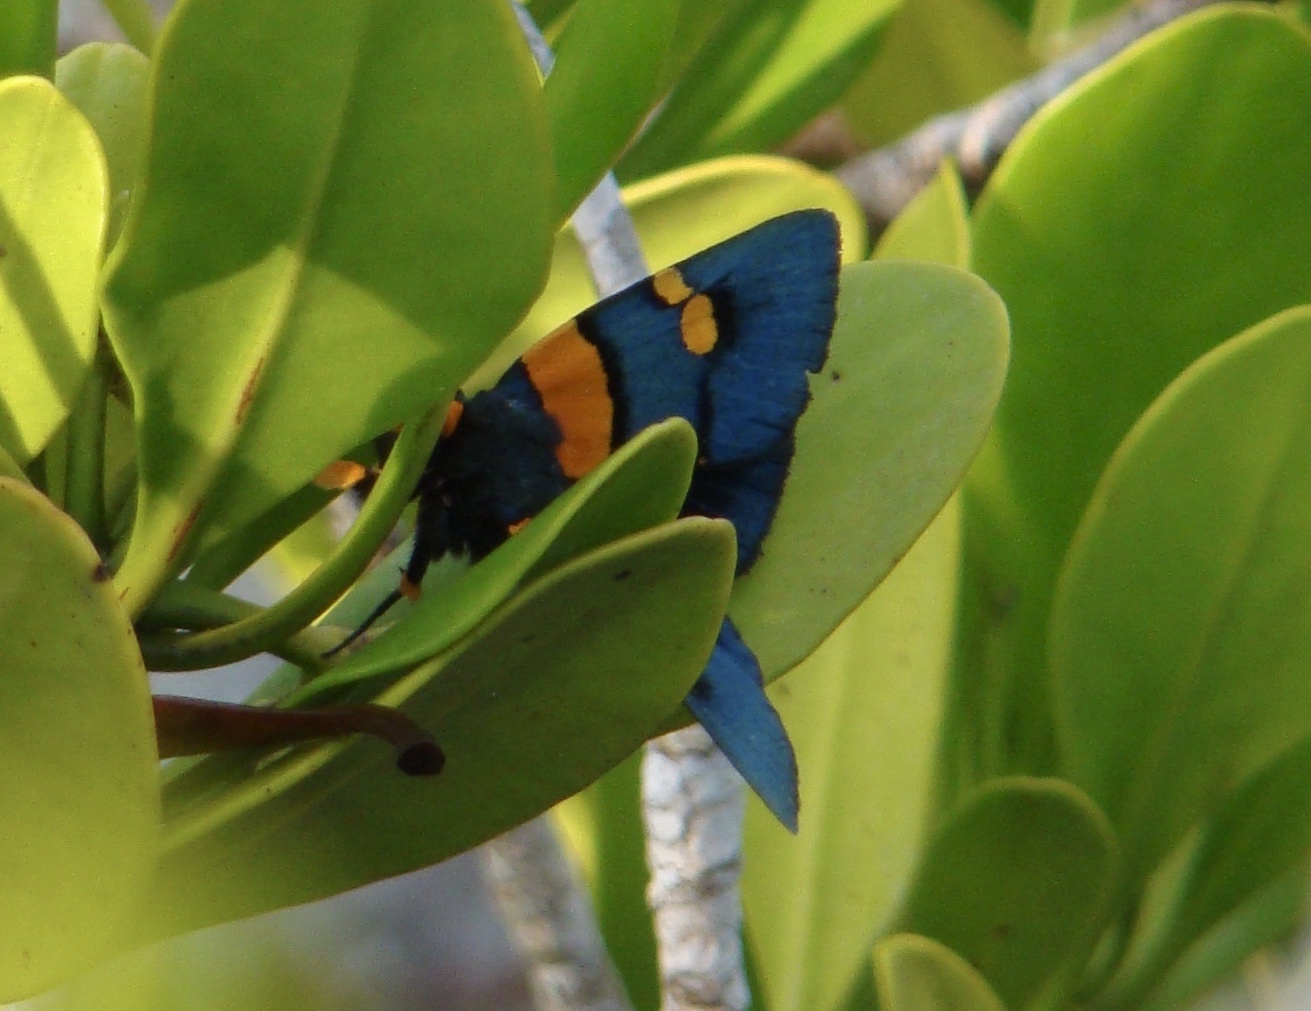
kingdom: Animalia
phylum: Arthropoda
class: Insecta
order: Lepidoptera
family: Erebidae
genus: Egybolis
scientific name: Egybolis vaillantina
